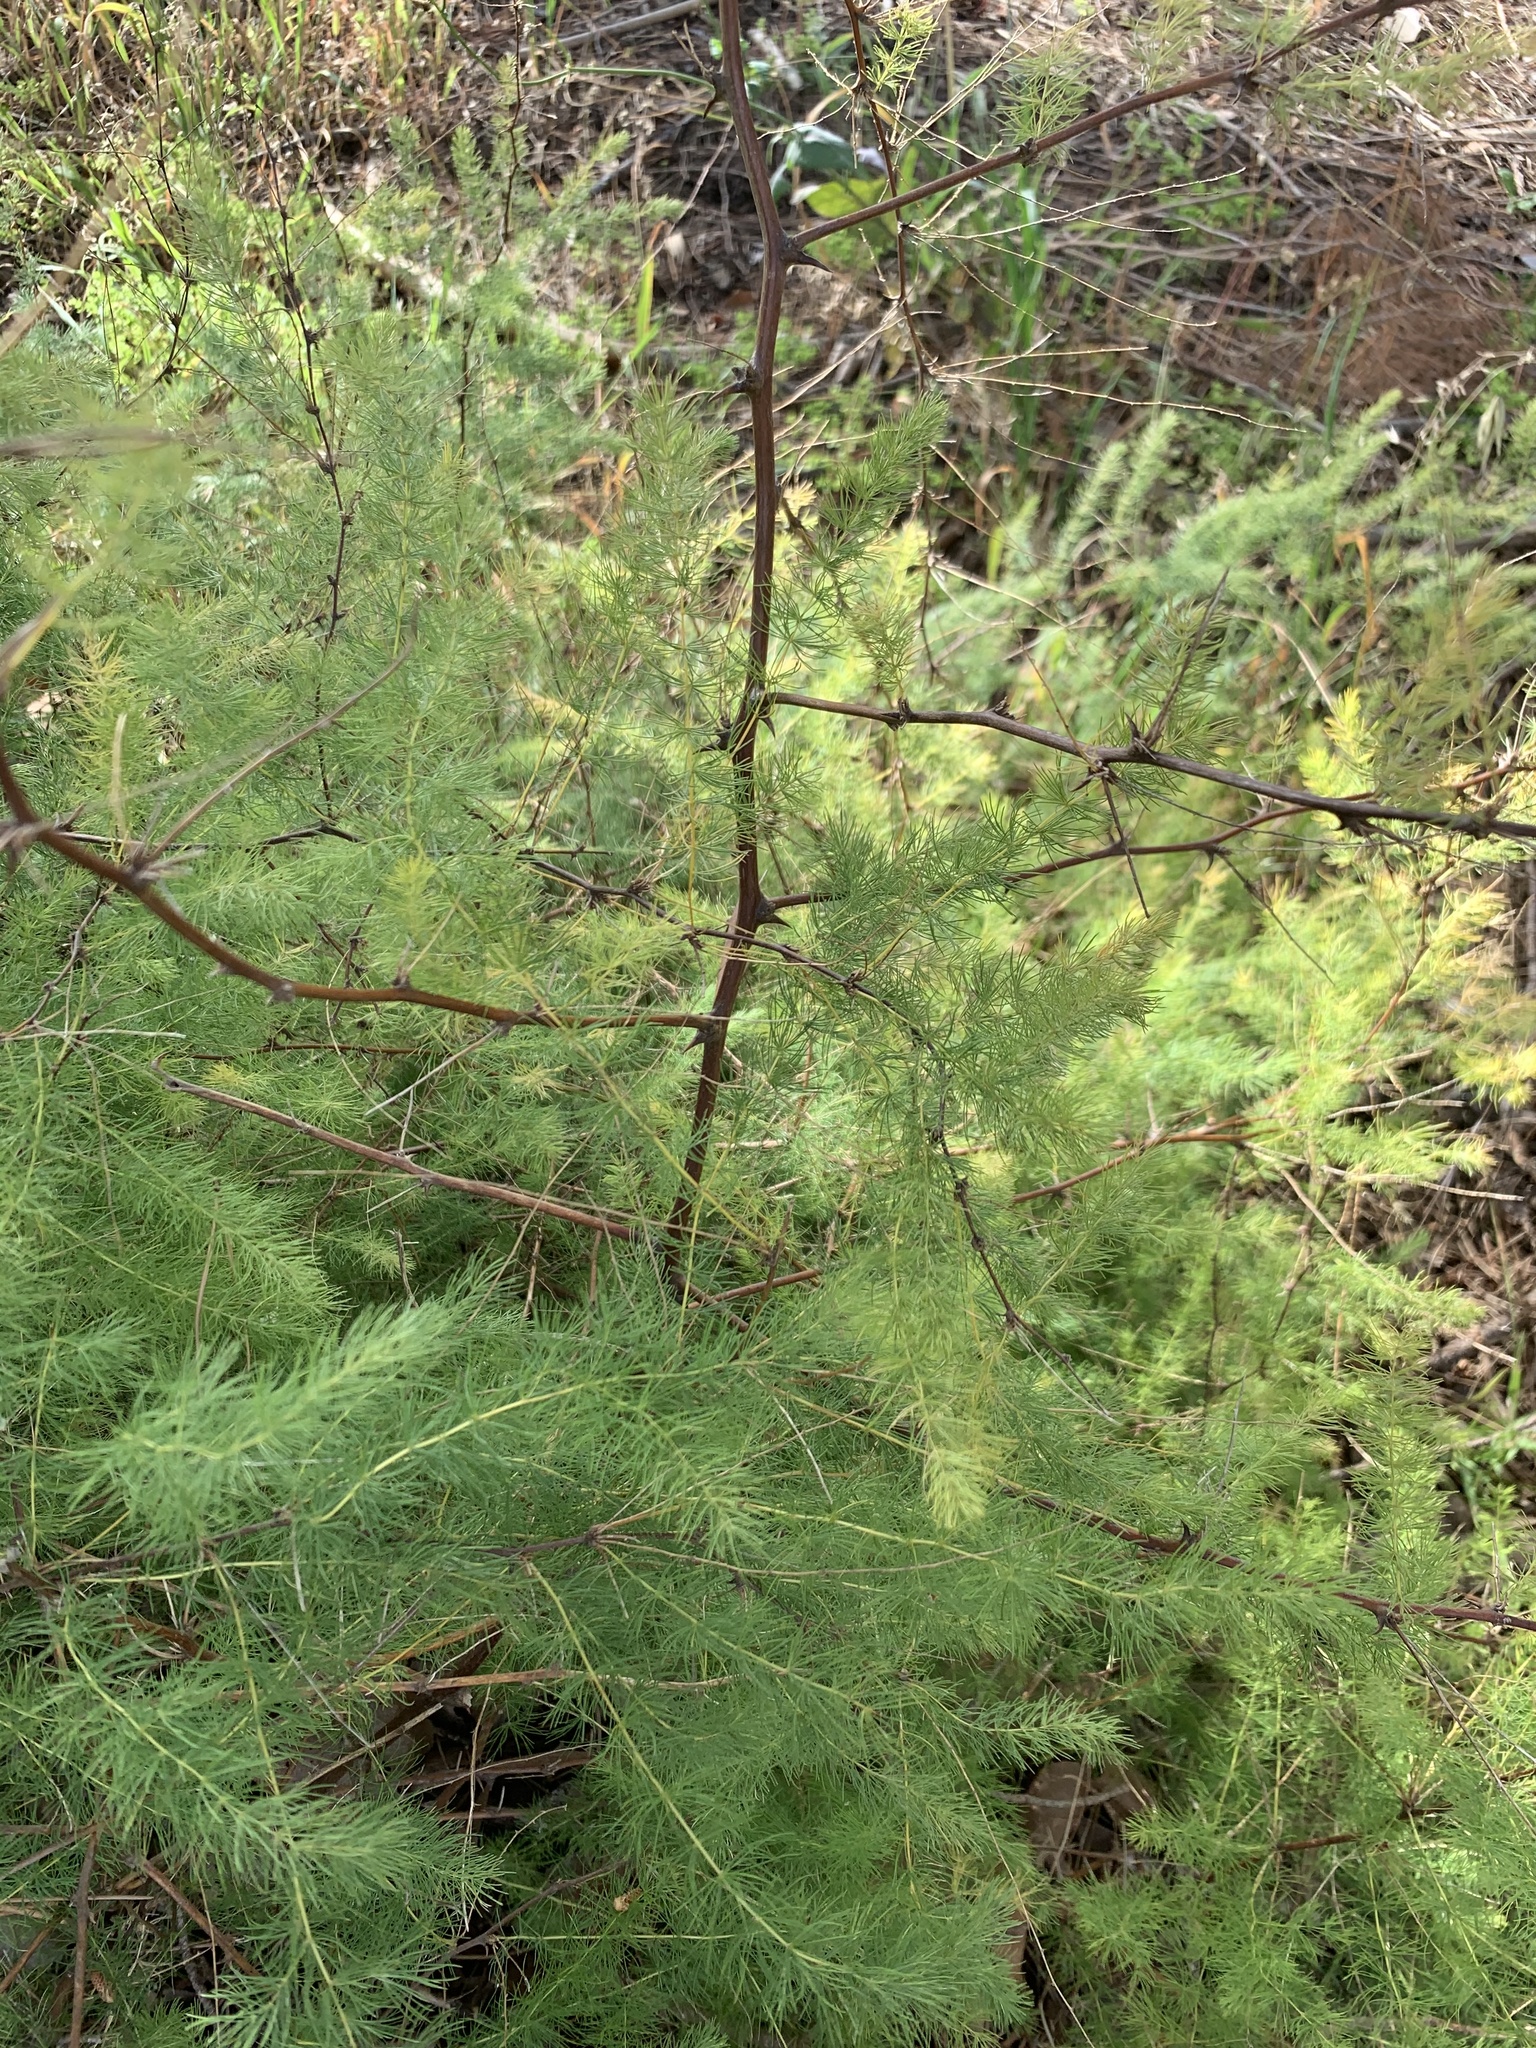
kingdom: Plantae
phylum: Tracheophyta
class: Liliopsida
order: Asparagales
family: Asparagaceae
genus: Asparagus
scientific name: Asparagus rubicundus
